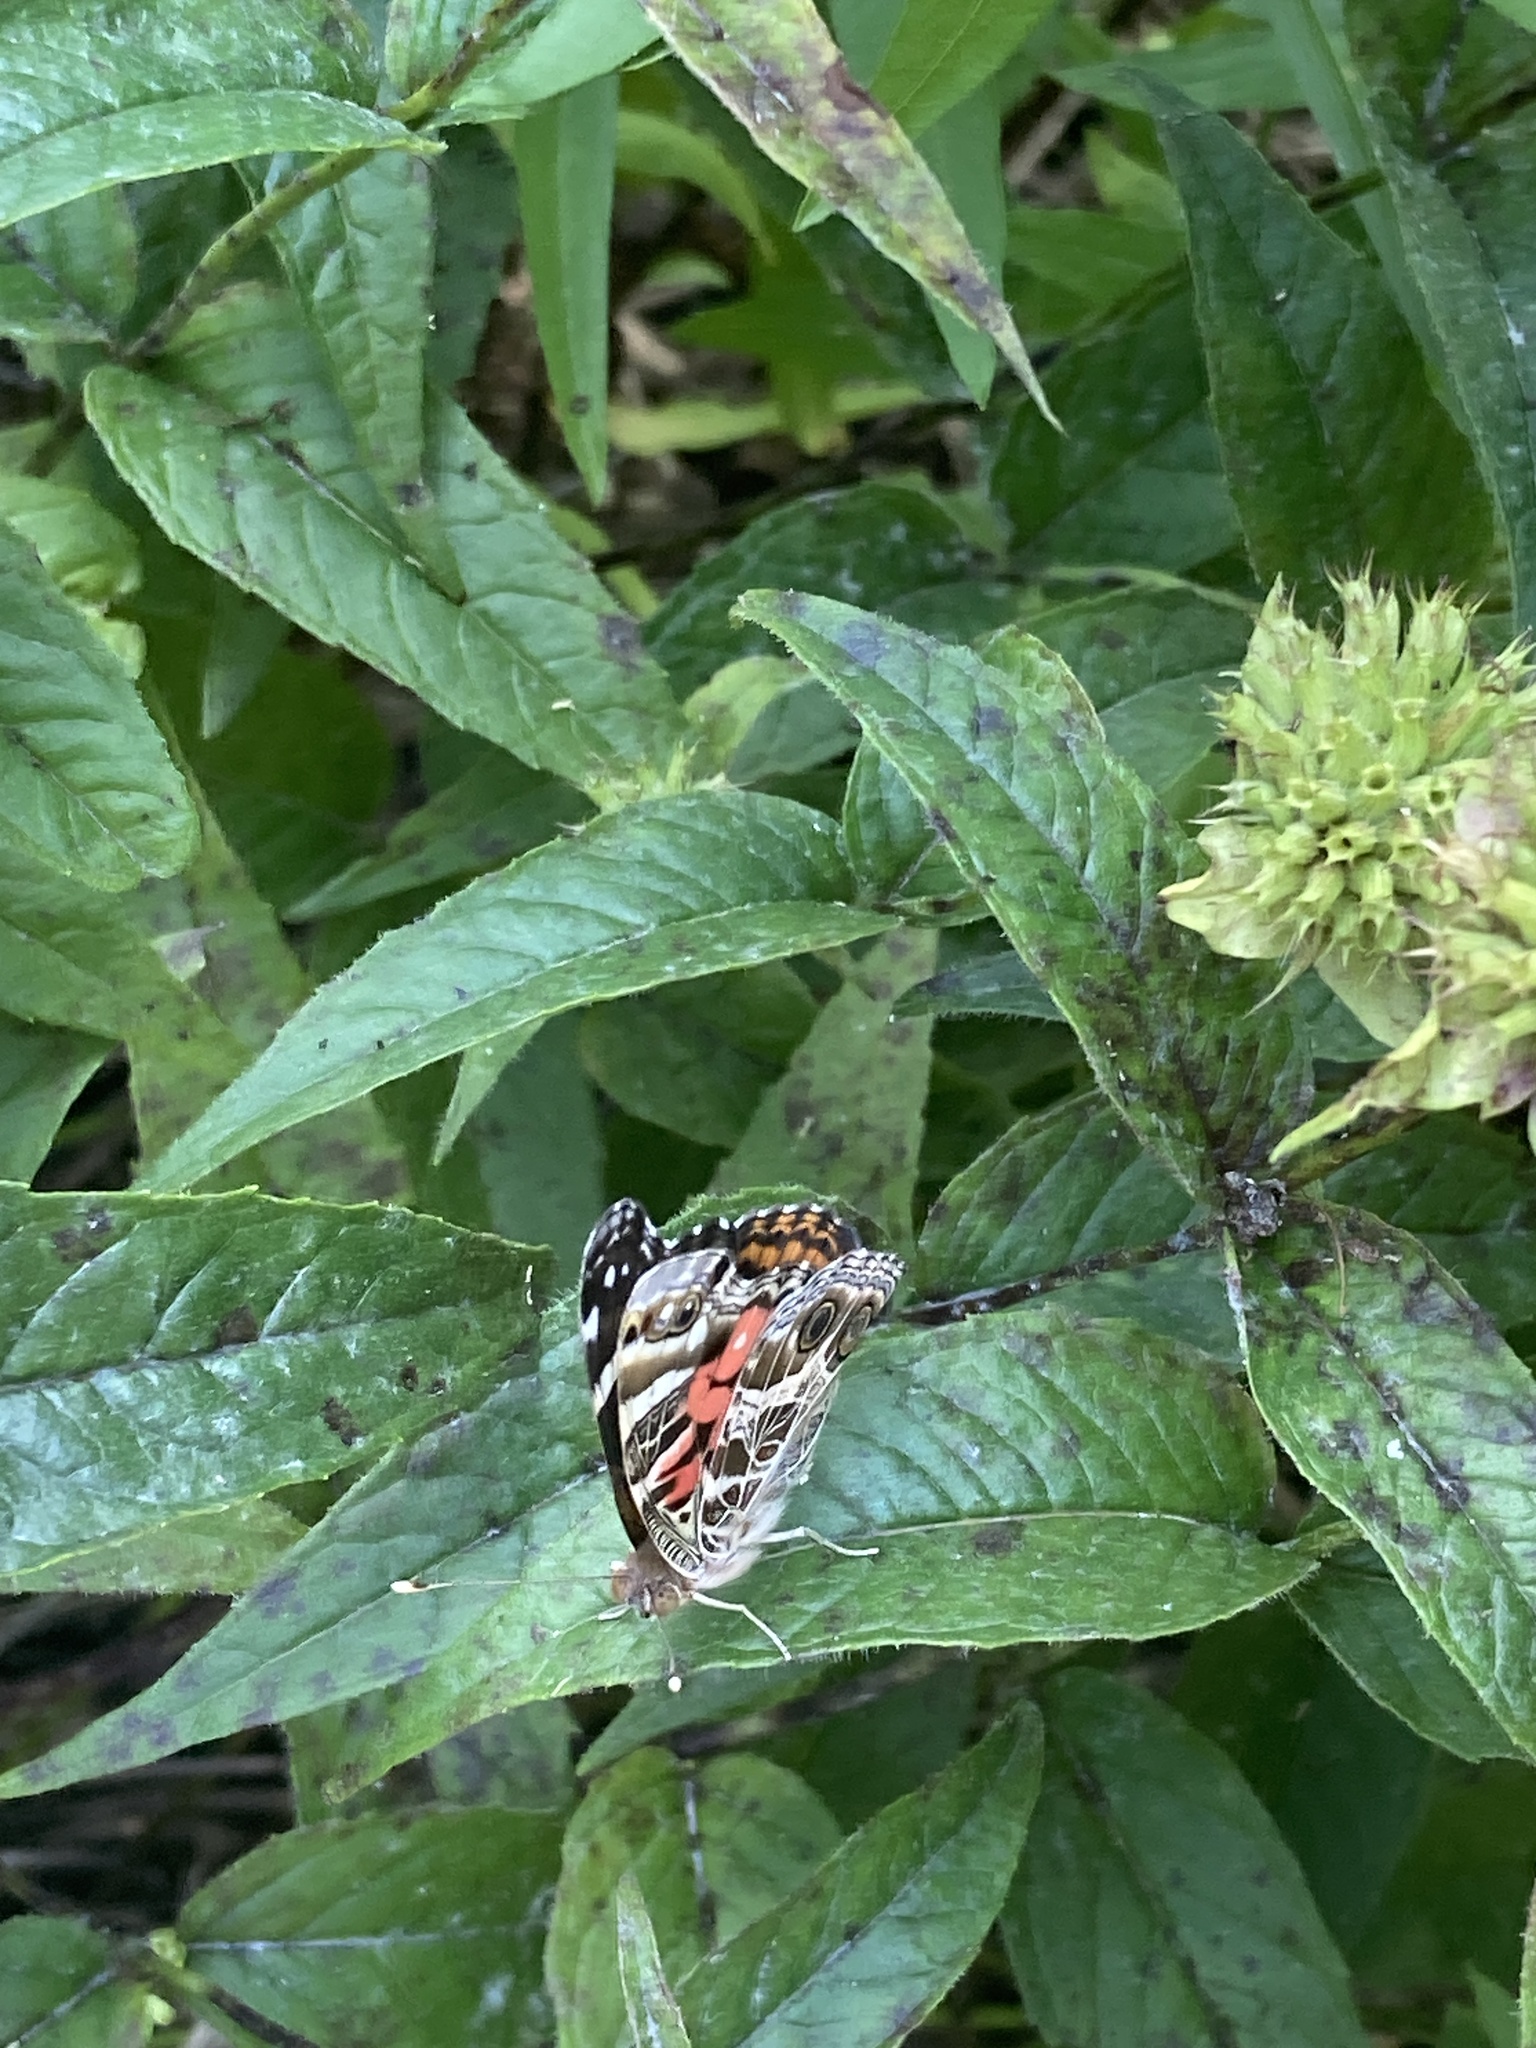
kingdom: Animalia
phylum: Arthropoda
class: Insecta
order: Lepidoptera
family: Nymphalidae
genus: Vanessa
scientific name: Vanessa virginiensis
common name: American lady
